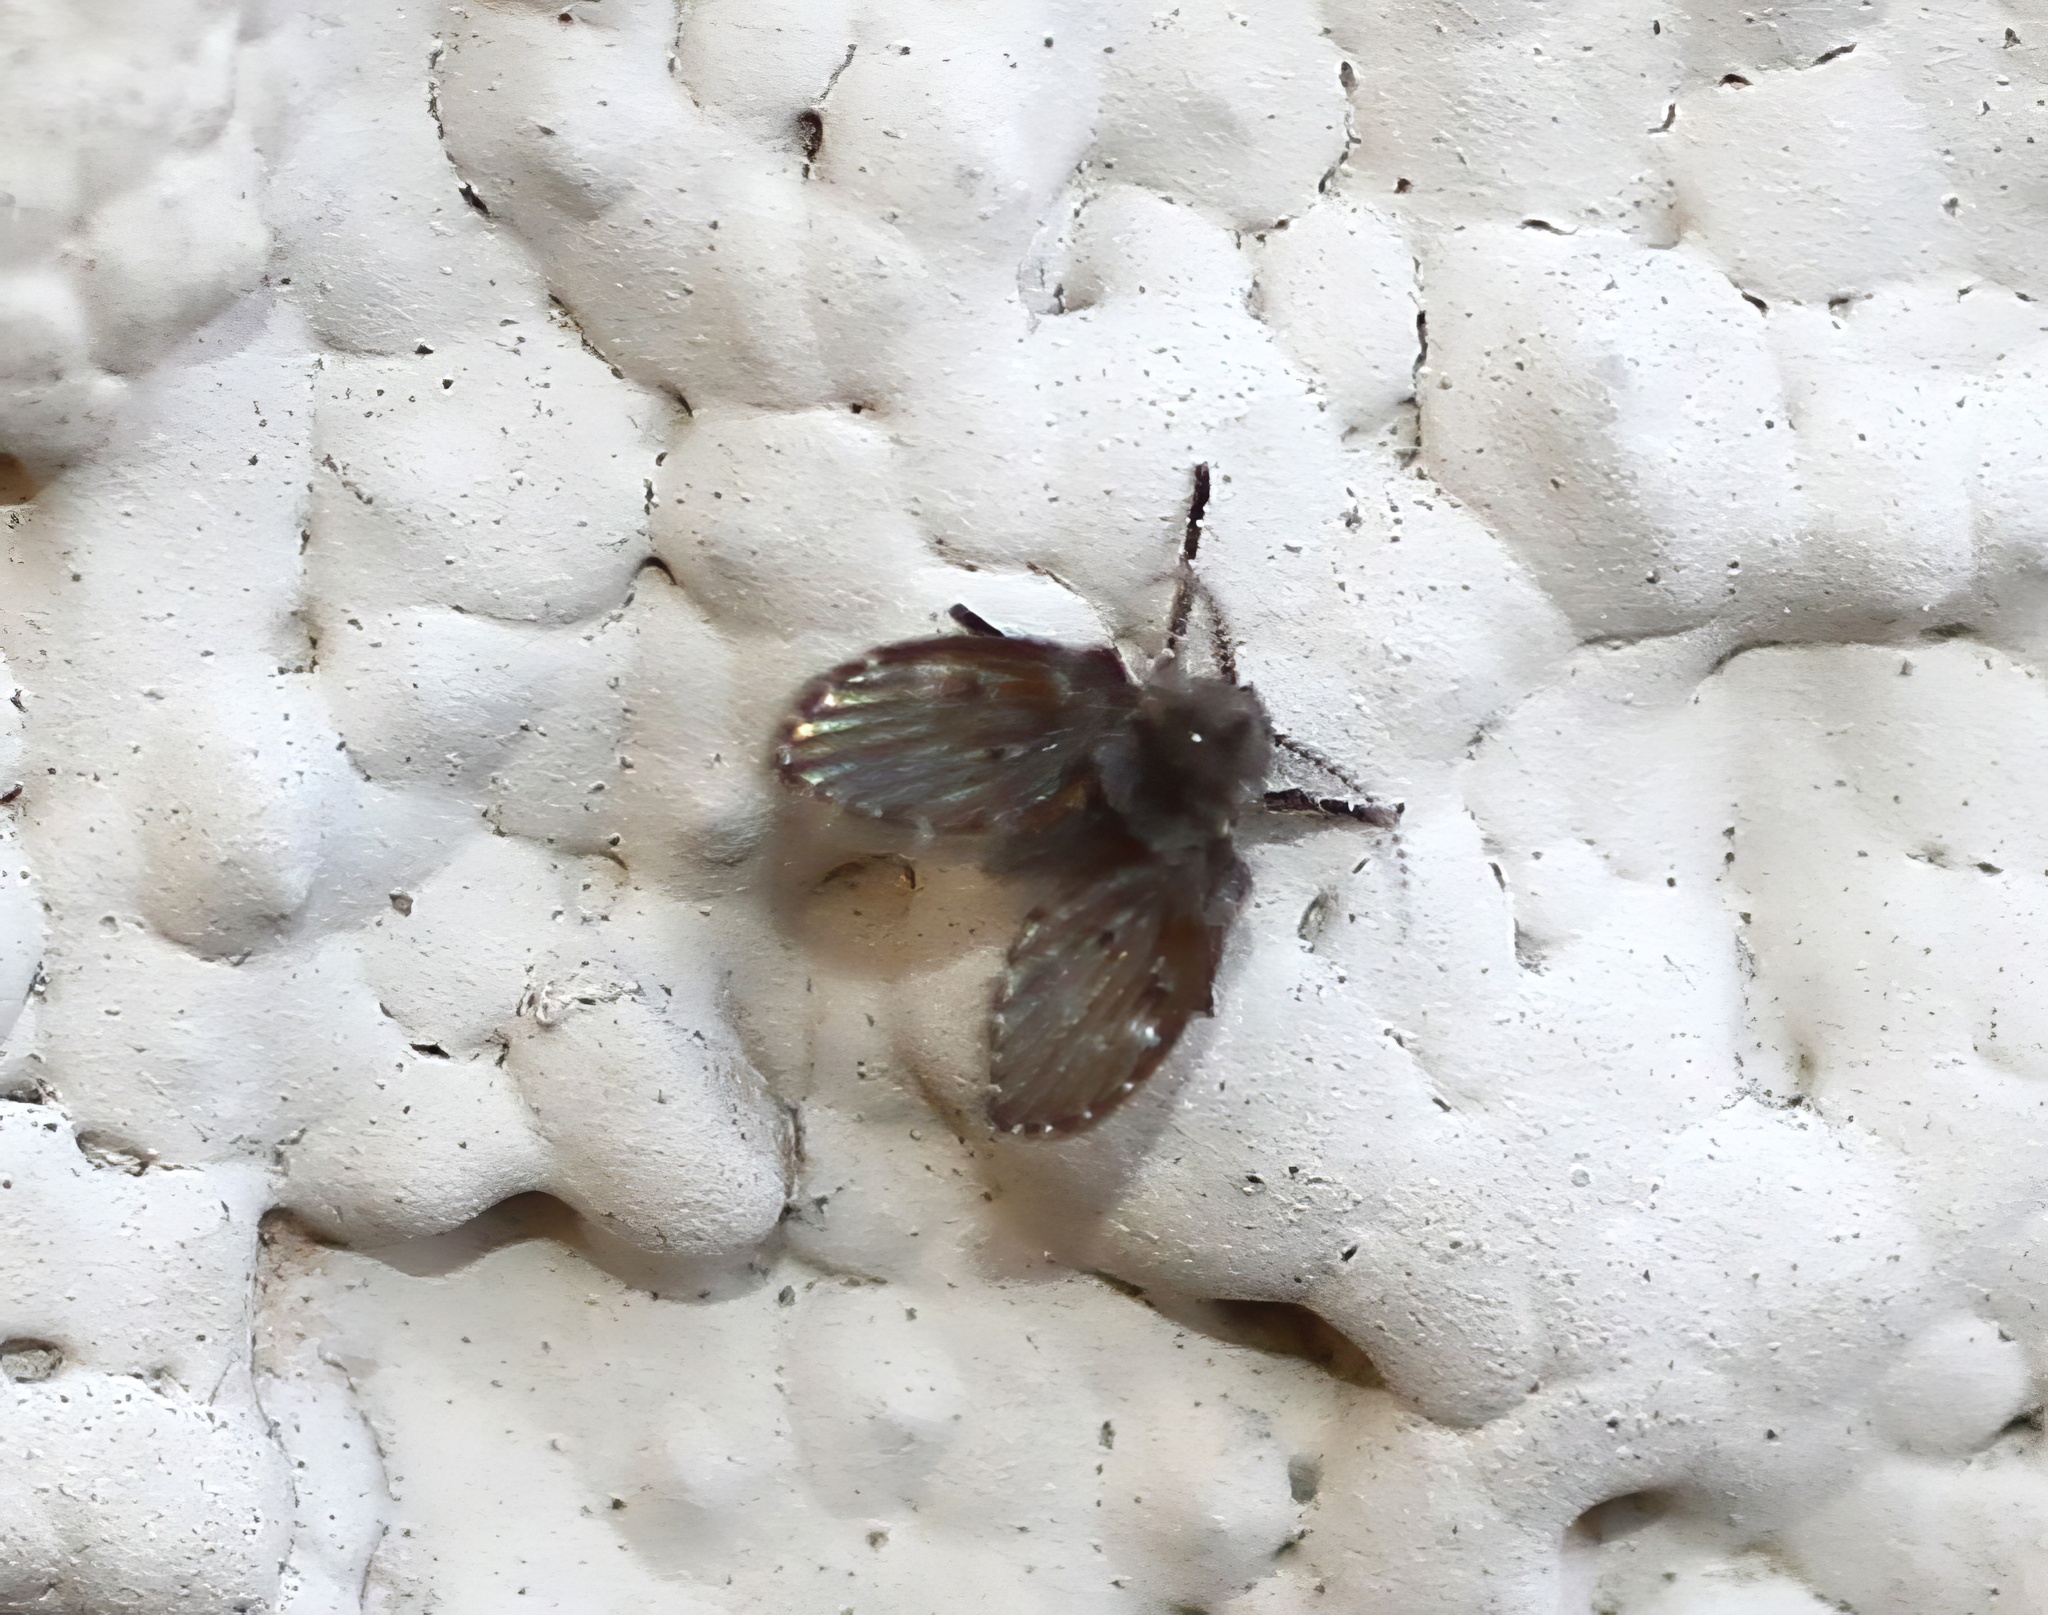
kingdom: Animalia
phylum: Arthropoda
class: Insecta
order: Diptera
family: Psychodidae
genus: Clogmia
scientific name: Clogmia albipunctatus
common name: White-spotted moth fly
